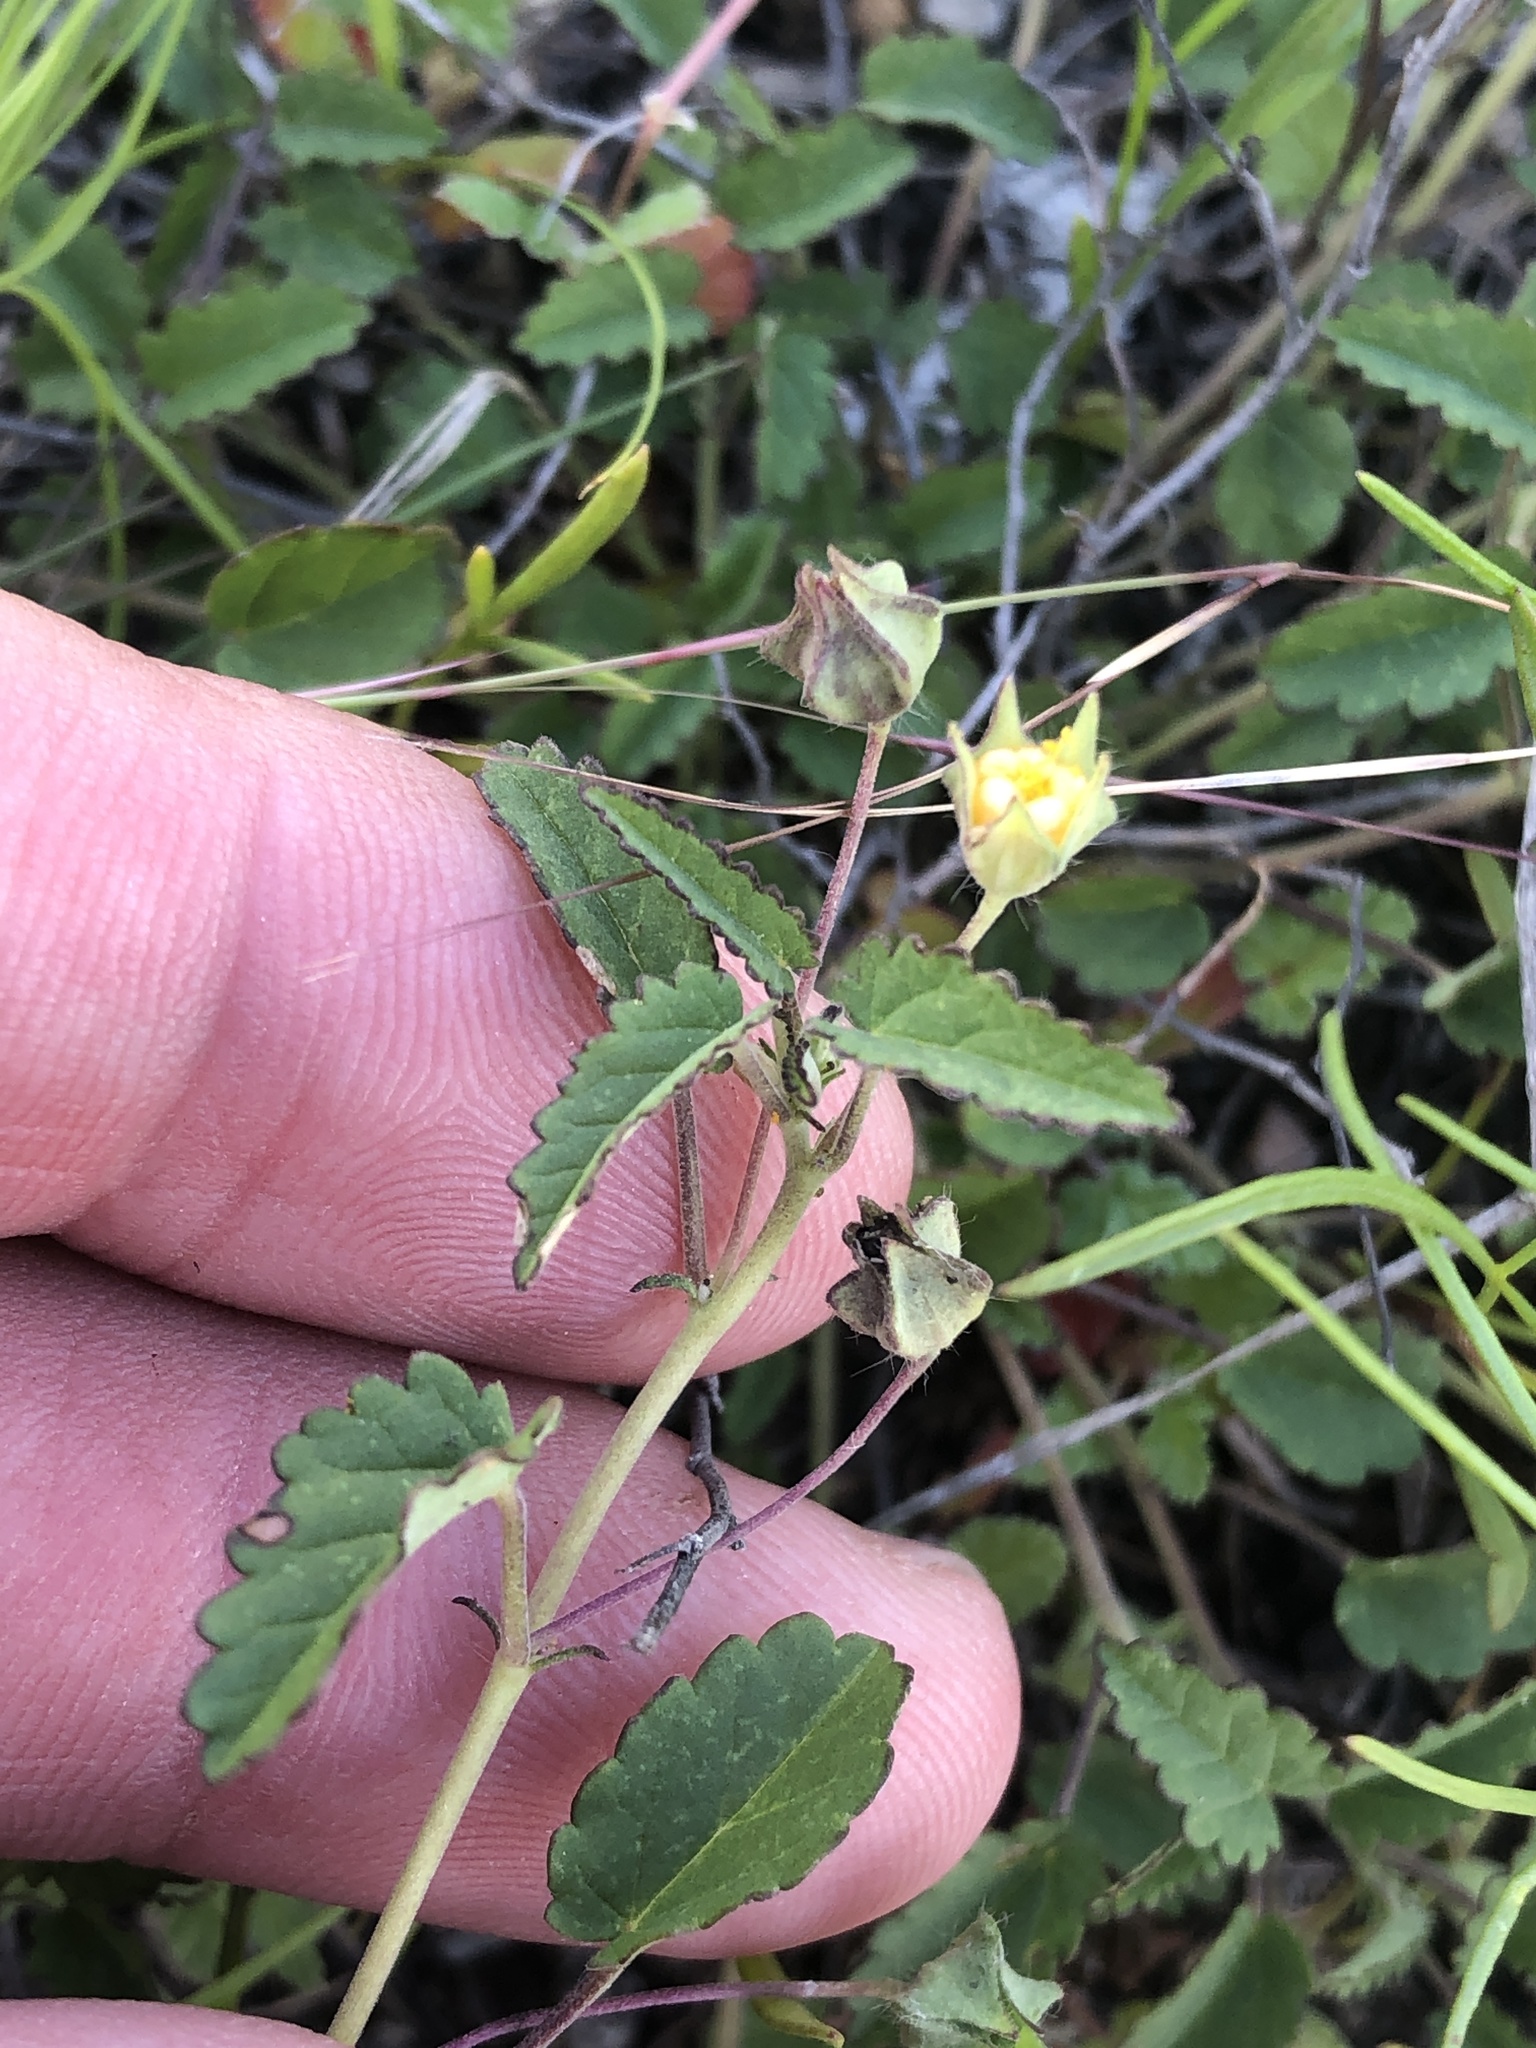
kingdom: Plantae
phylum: Tracheophyta
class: Magnoliopsida
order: Malvales
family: Malvaceae
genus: Sida
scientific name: Sida abutilifolia
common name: Spreading fanpetals
